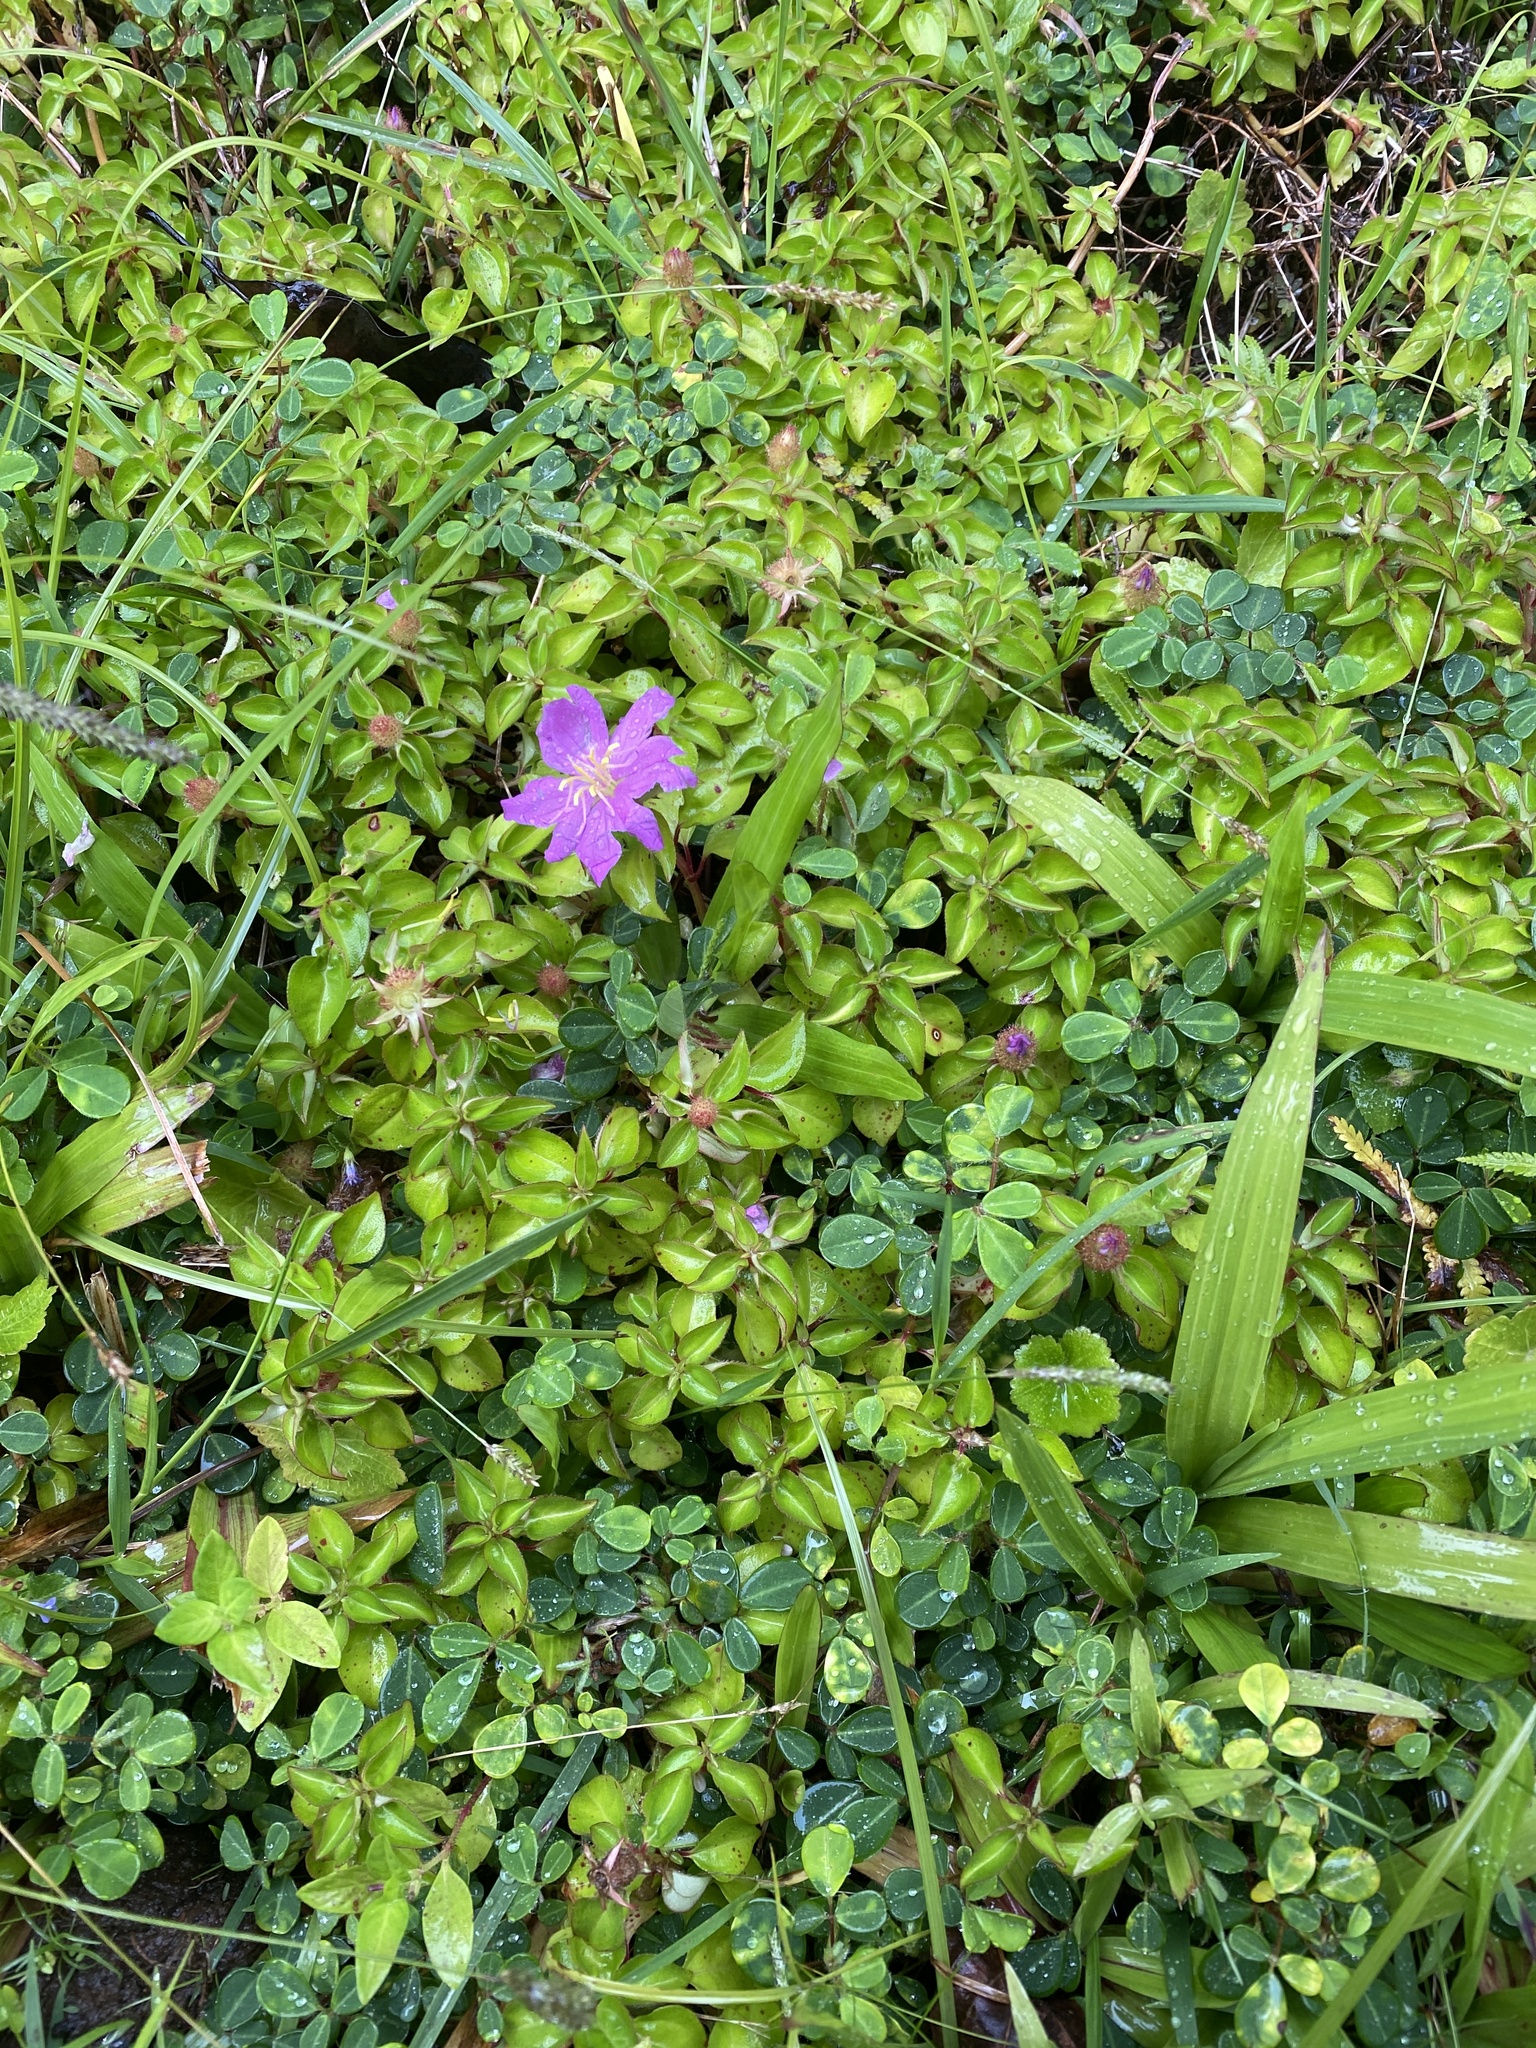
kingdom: Plantae
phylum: Tracheophyta
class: Magnoliopsida
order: Myrtales
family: Melastomataceae
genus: Heterotis
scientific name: Heterotis rotundifolia
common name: Pinklady
